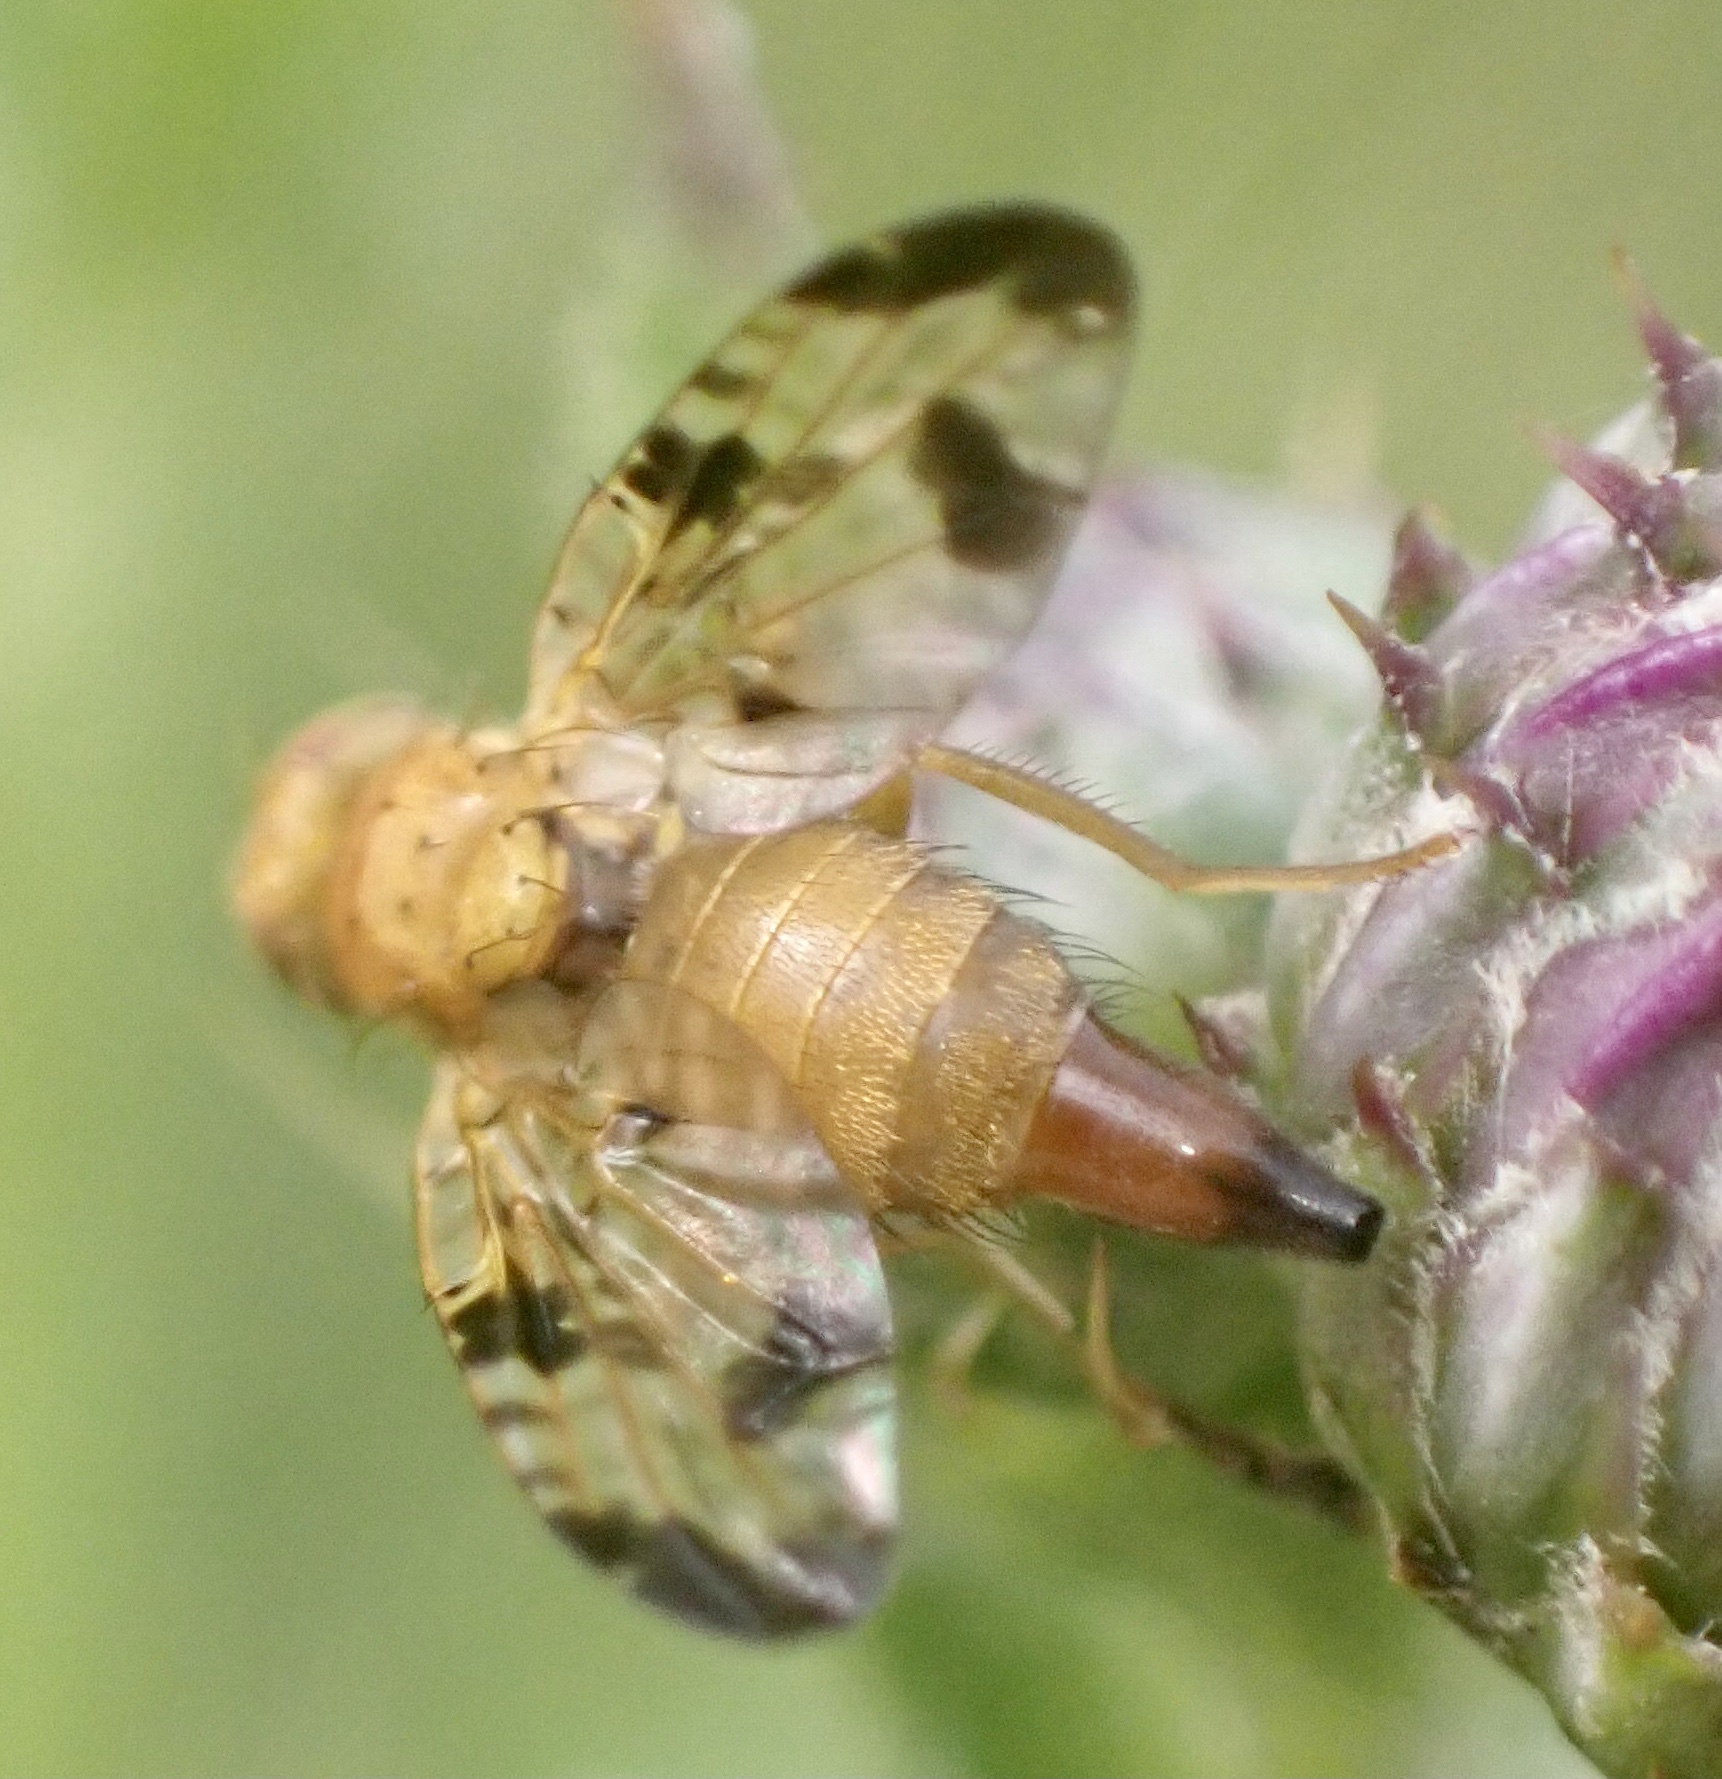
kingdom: Animalia
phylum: Arthropoda
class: Insecta
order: Diptera
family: Tephritidae
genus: Xyphosia
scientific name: Xyphosia miliaria
